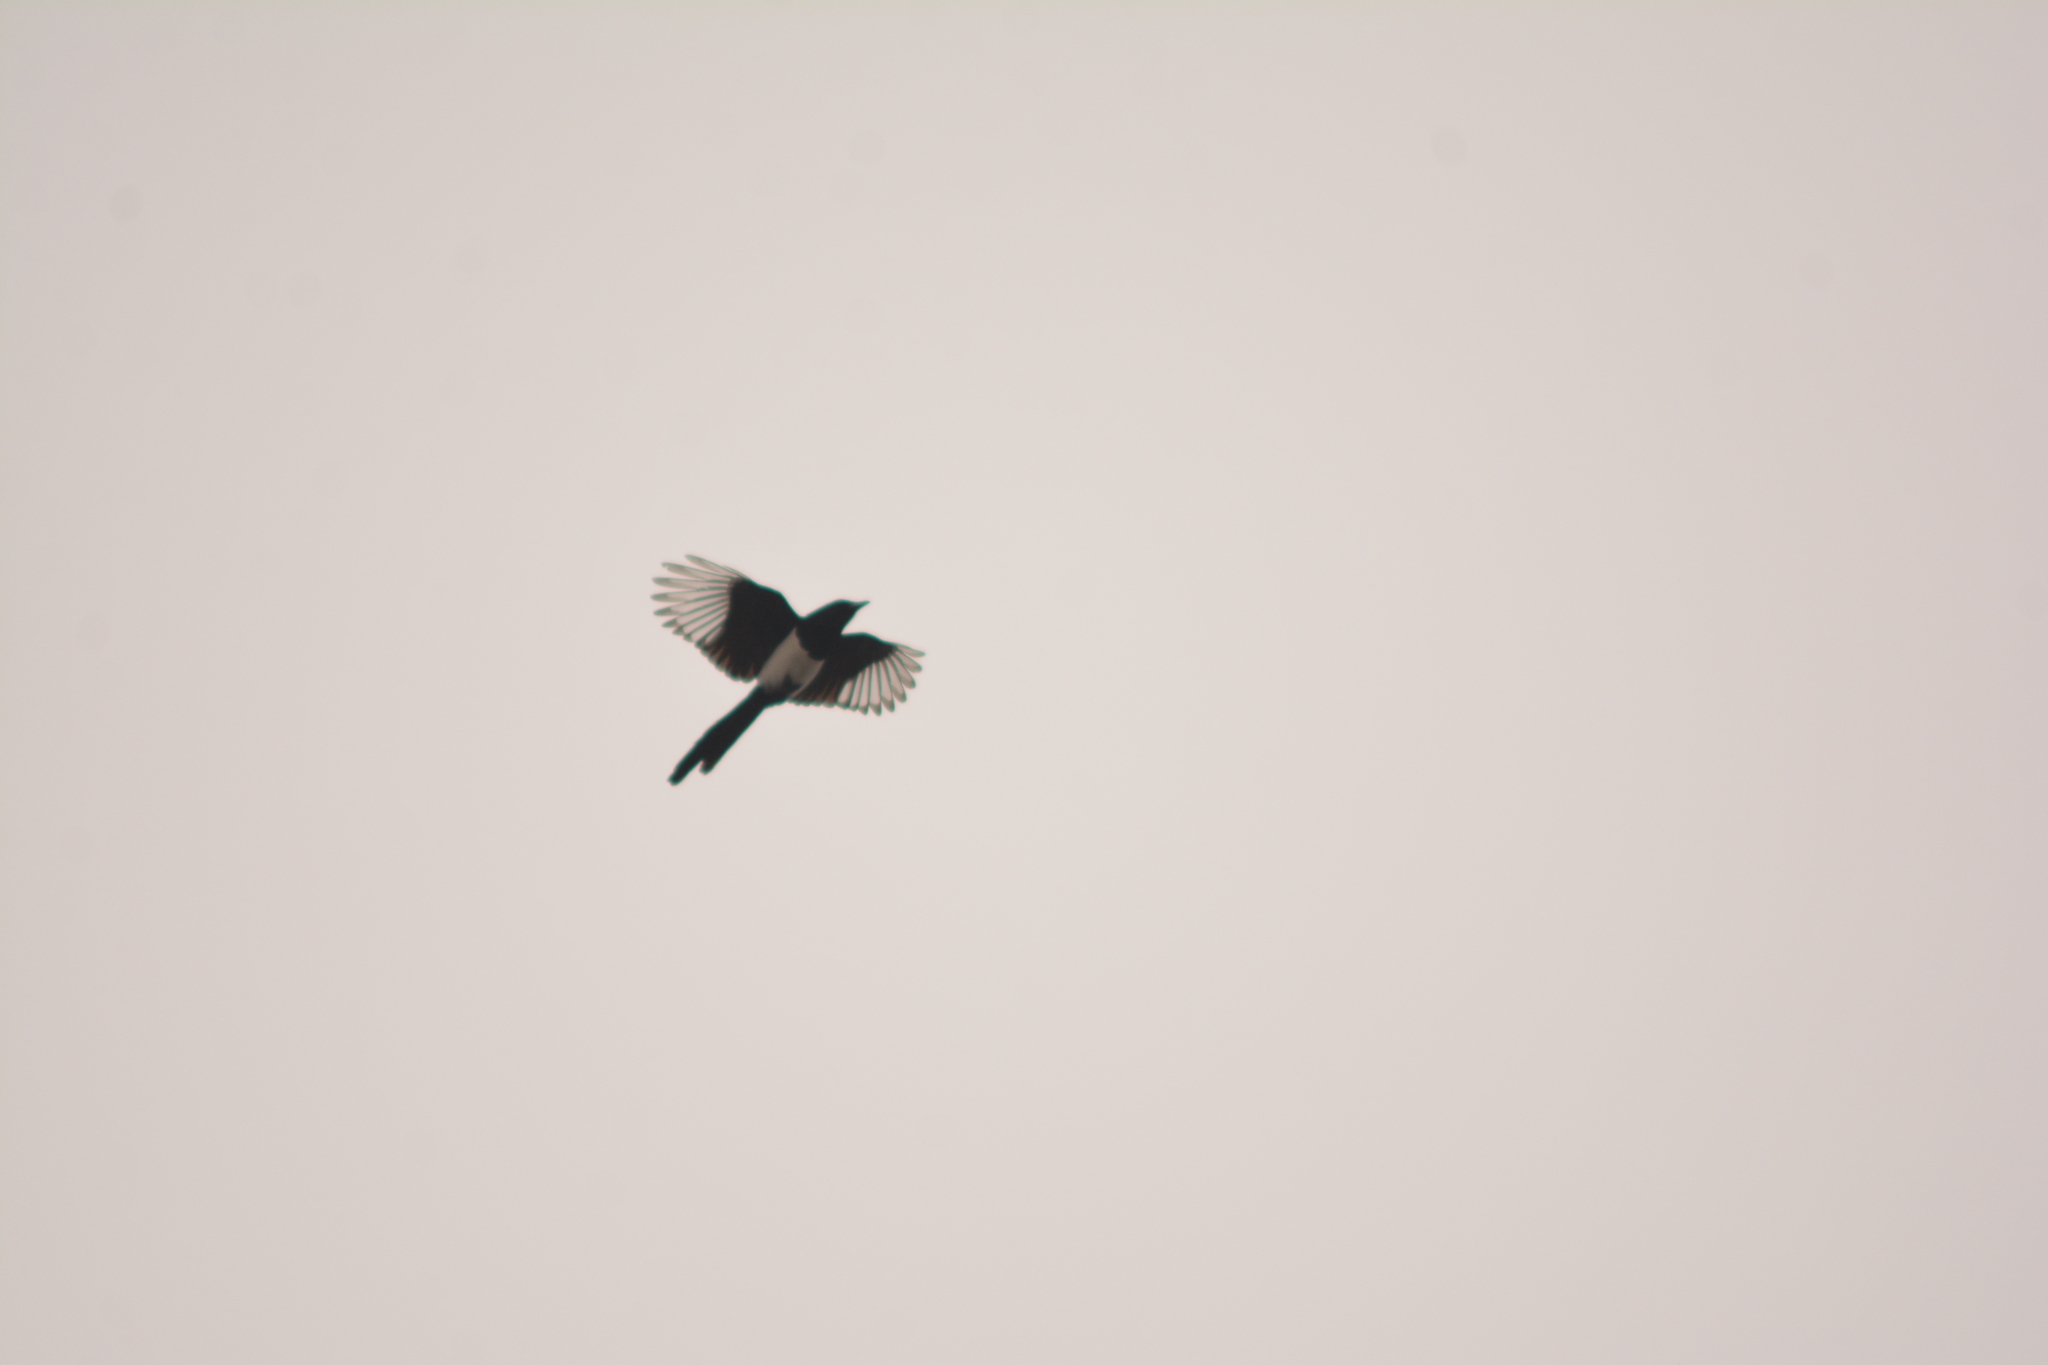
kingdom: Animalia
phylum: Chordata
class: Aves
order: Passeriformes
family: Corvidae
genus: Pica
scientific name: Pica pica
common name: Eurasian magpie
